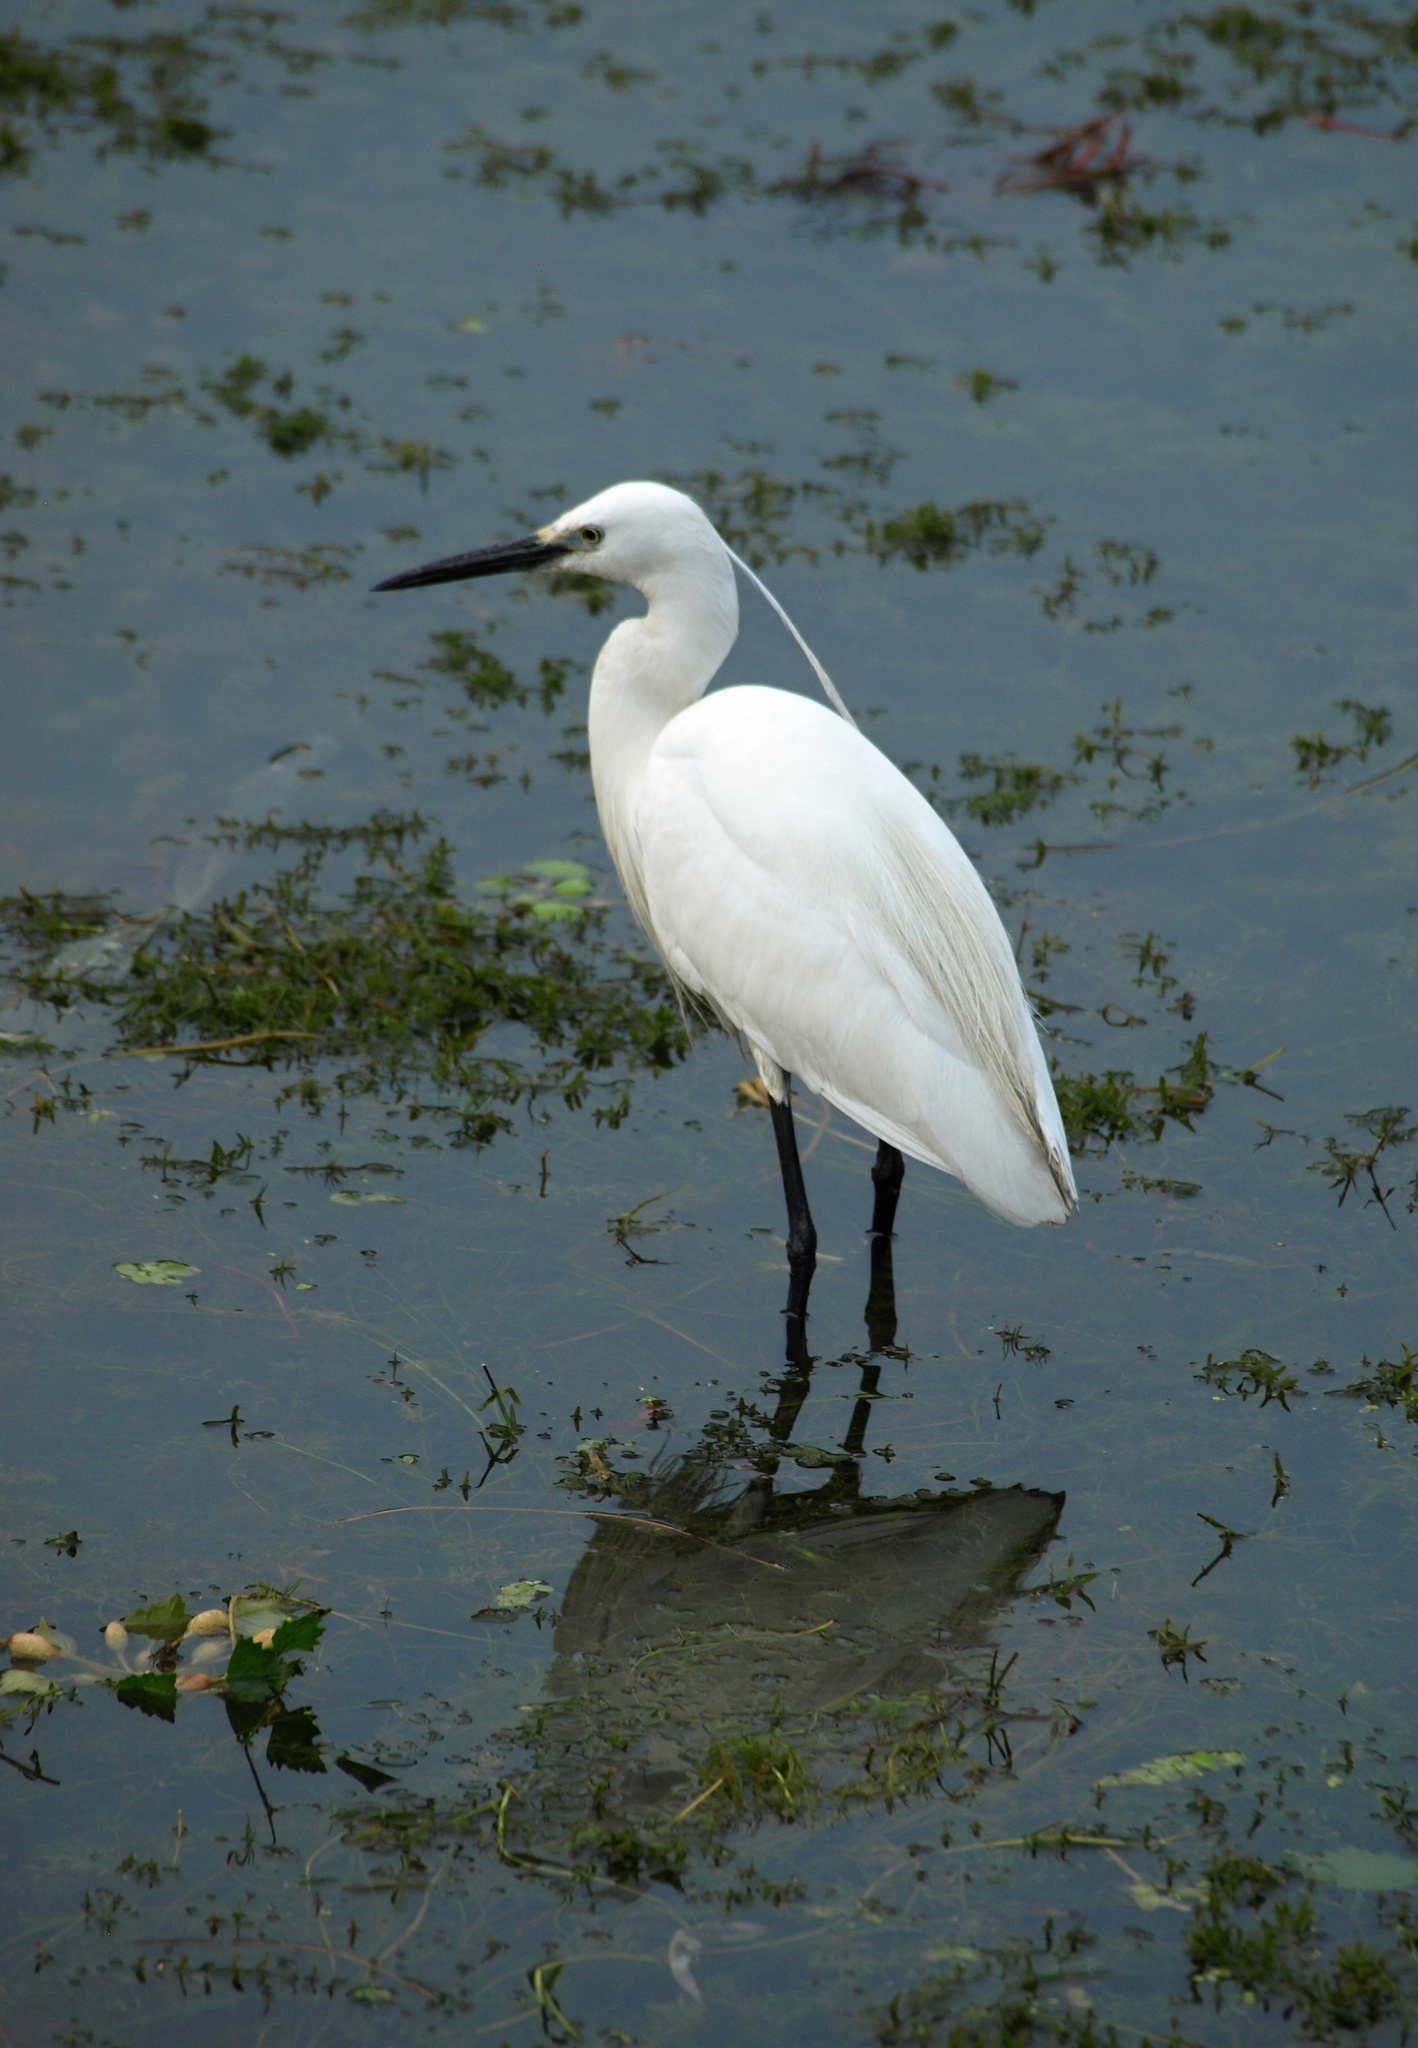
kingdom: Animalia
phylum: Chordata
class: Aves
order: Pelecaniformes
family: Ardeidae
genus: Egretta
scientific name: Egretta garzetta
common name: Little egret
